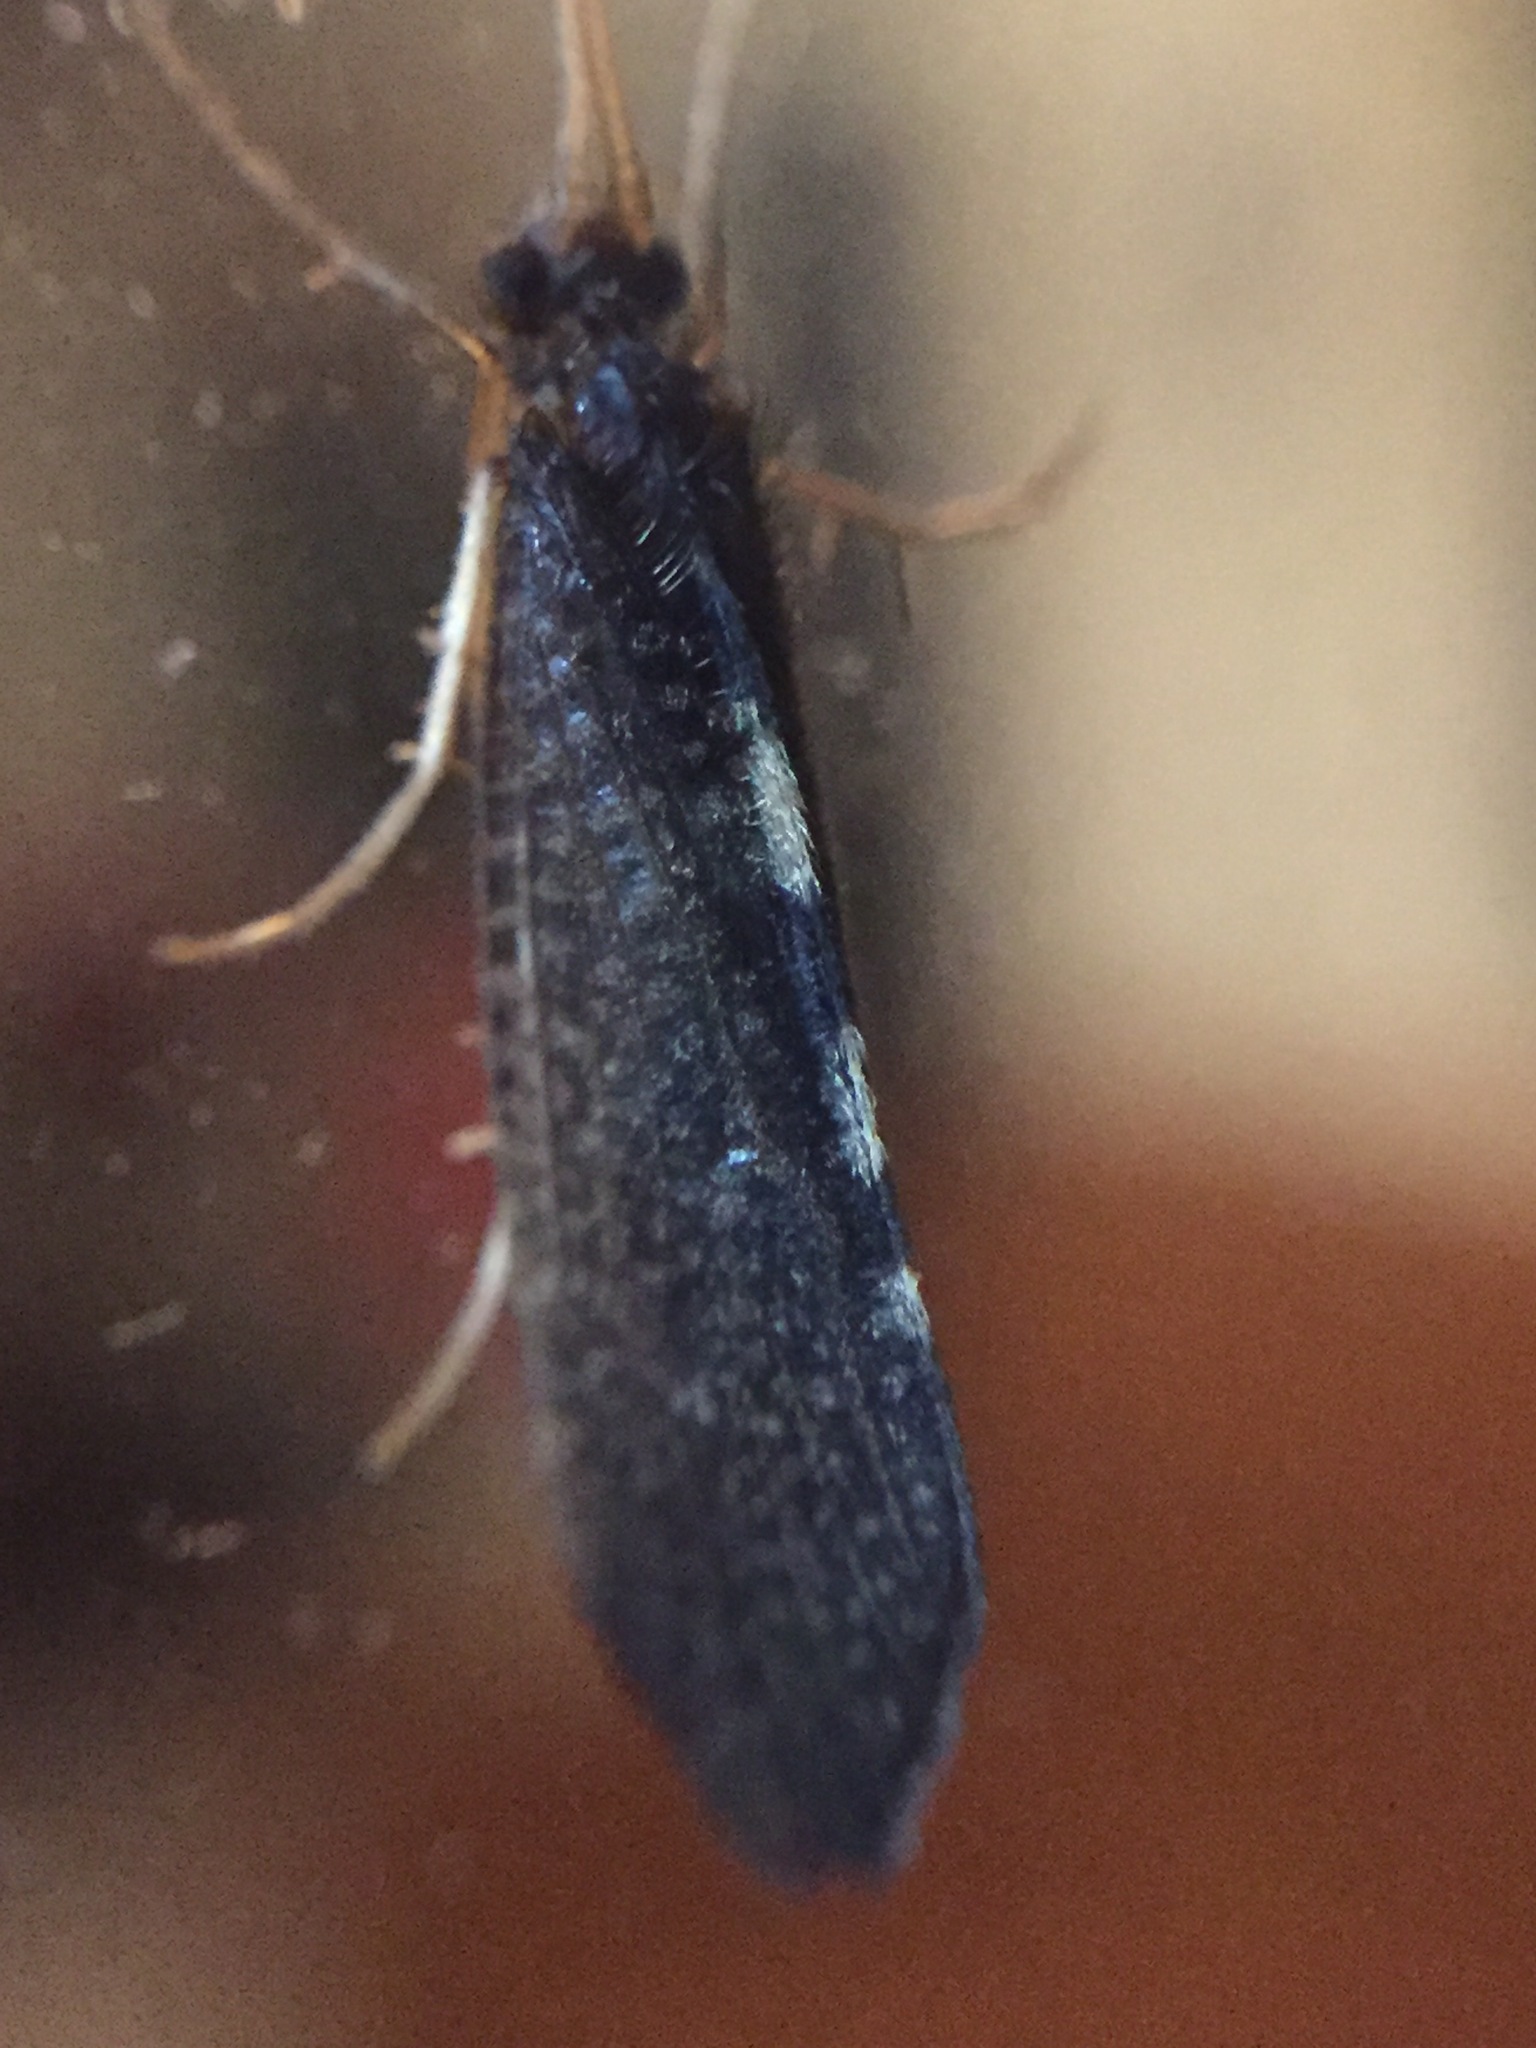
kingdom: Animalia
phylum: Arthropoda
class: Insecta
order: Trichoptera
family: Oeconesidae
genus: Pseudoeconesus
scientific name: Pseudoeconesus bistirpis
